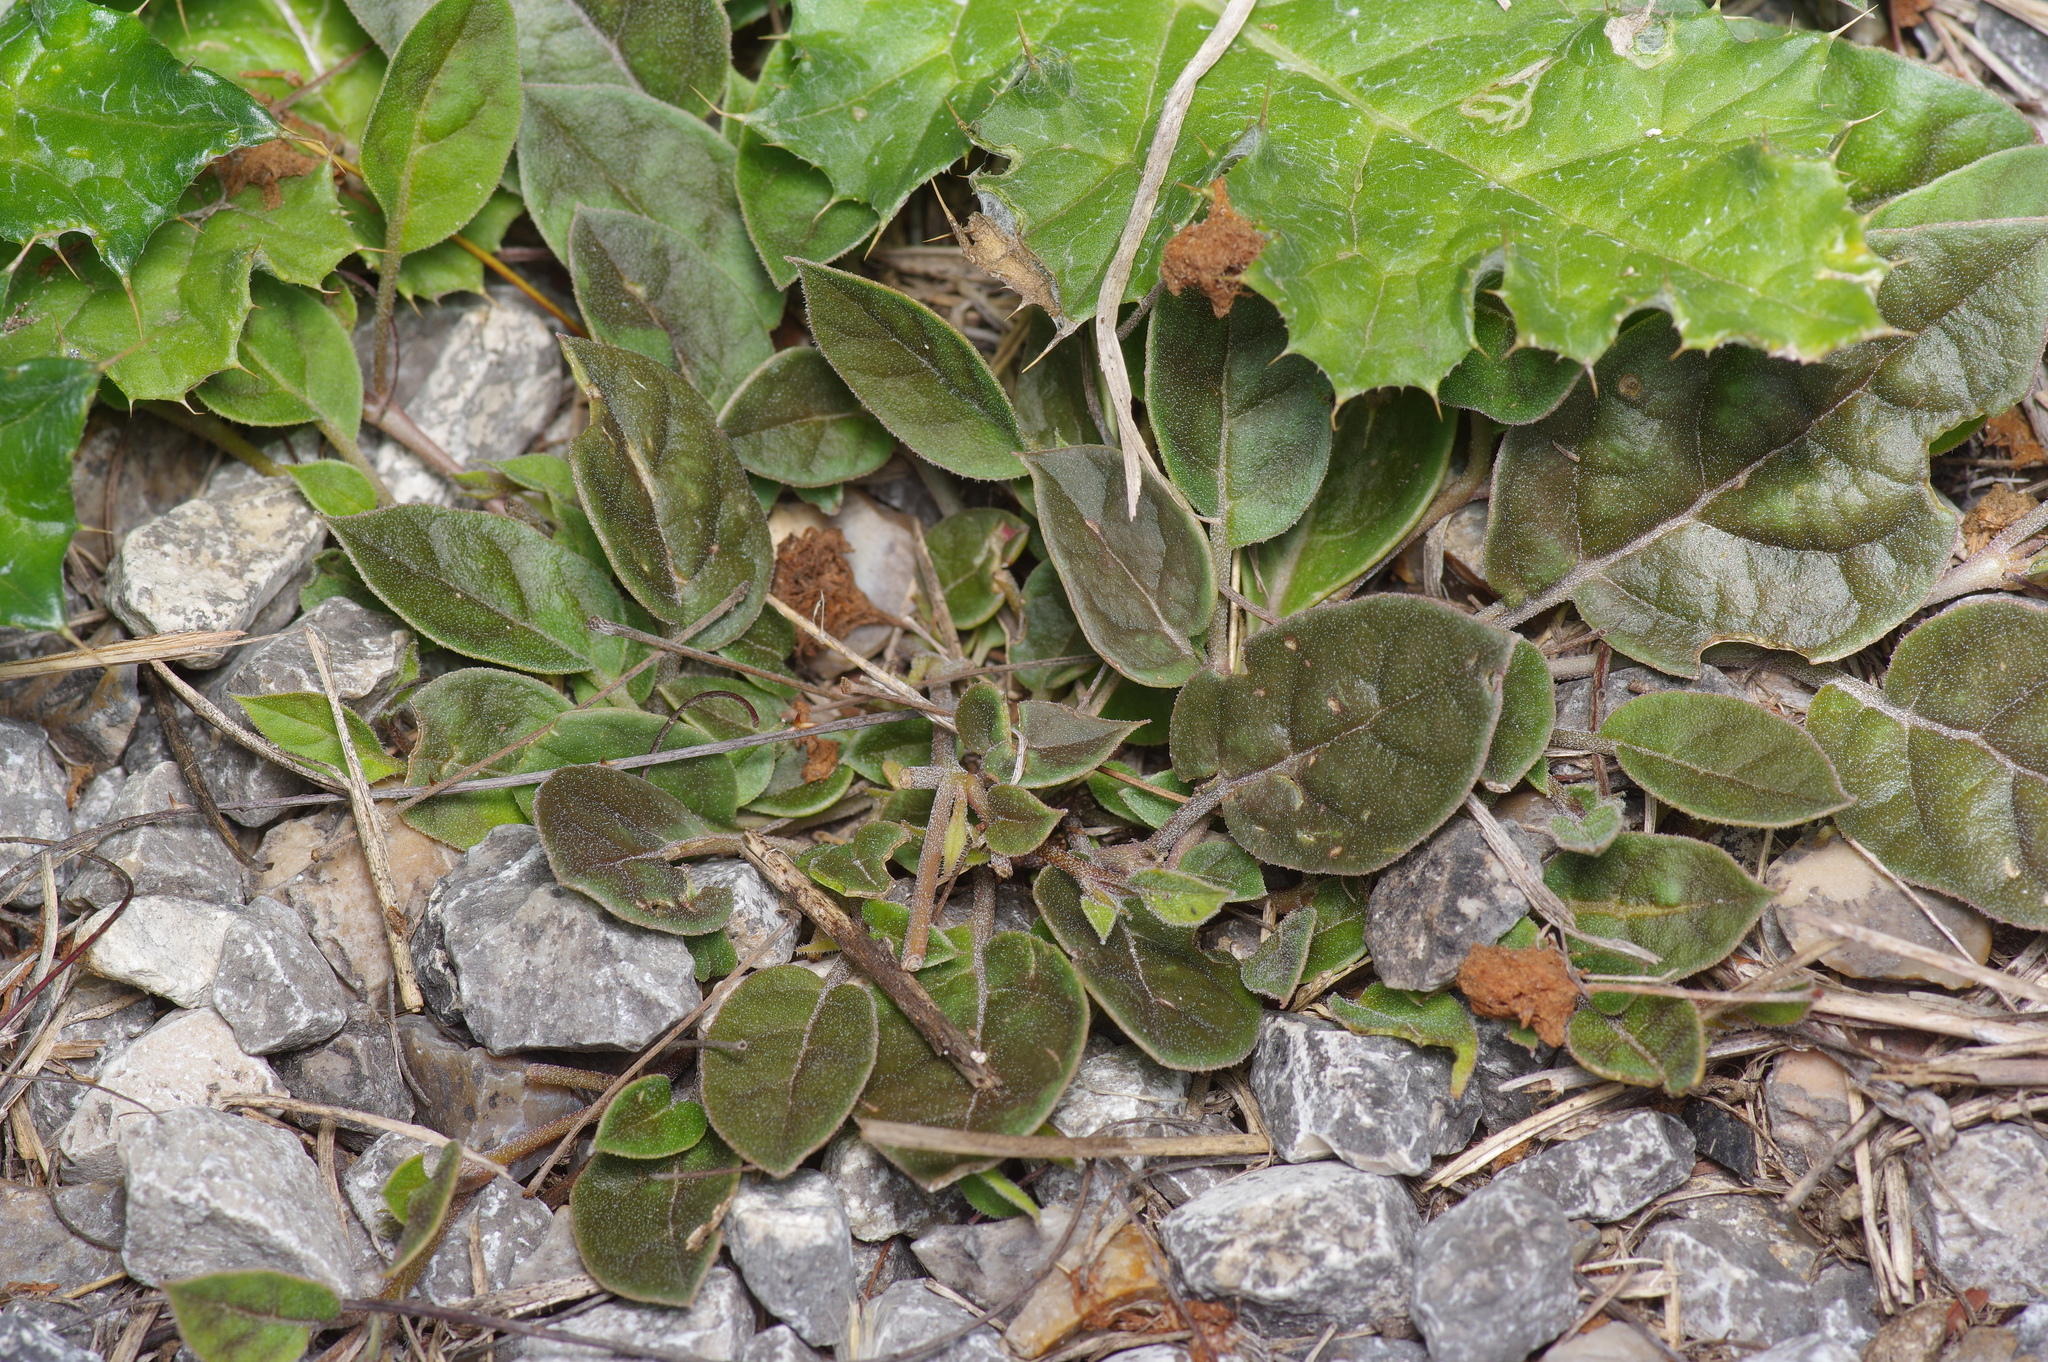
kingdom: Plantae
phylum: Tracheophyta
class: Magnoliopsida
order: Caryophyllales
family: Nyctaginaceae
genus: Acleisanthes
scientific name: Acleisanthes anisophylla
